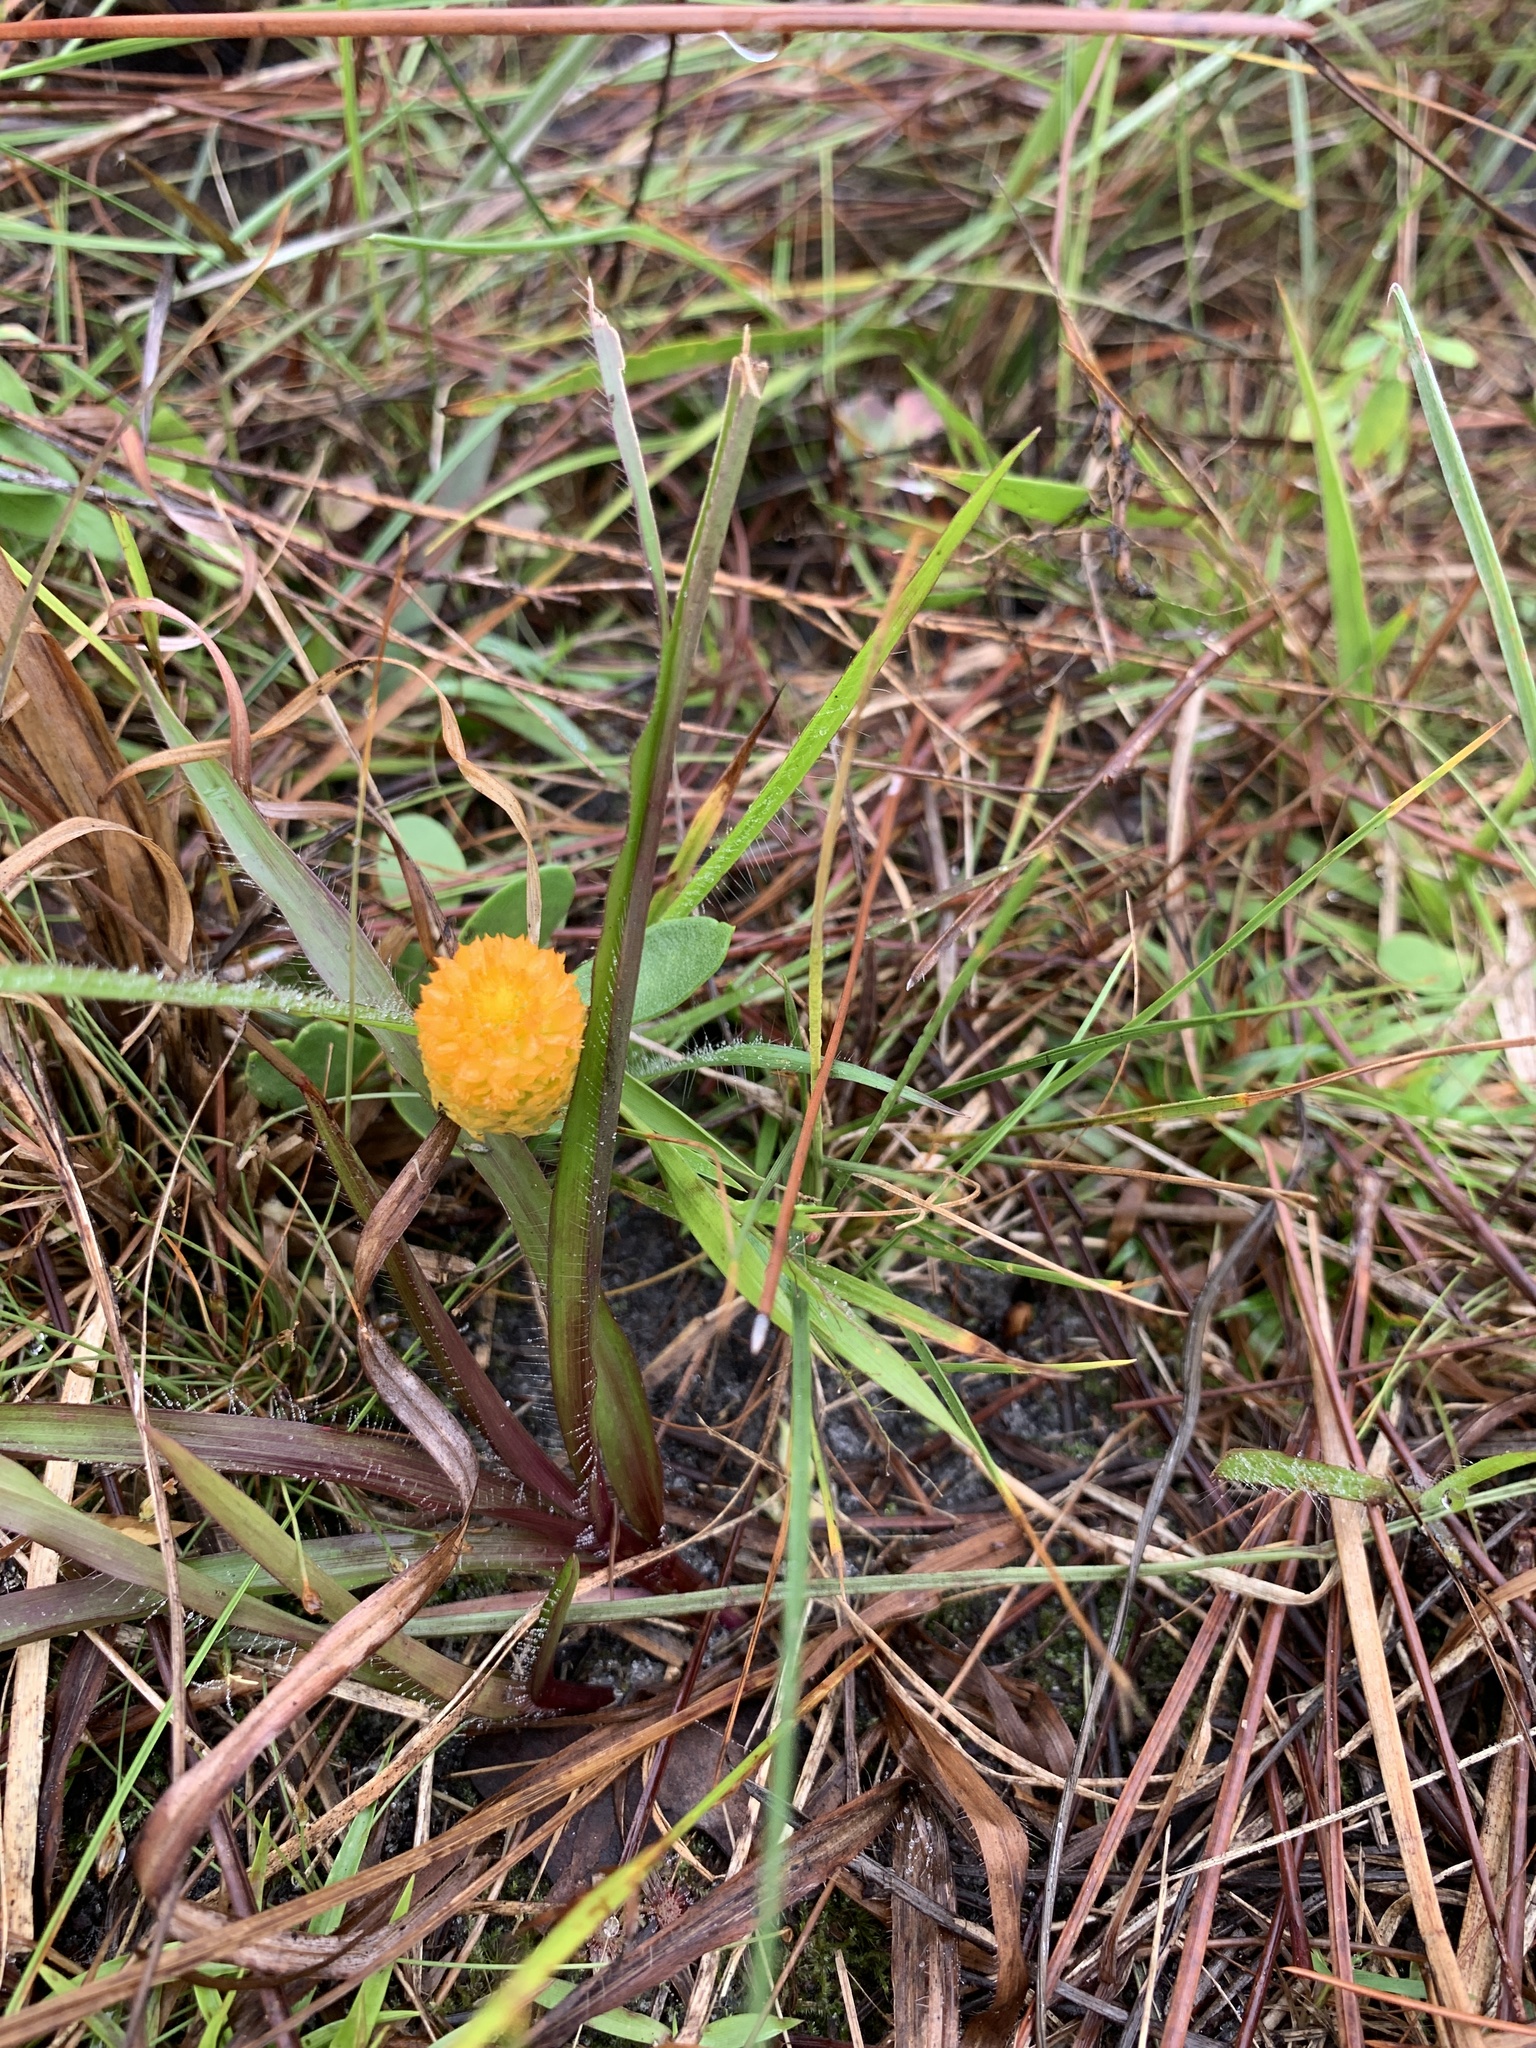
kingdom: Plantae
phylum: Tracheophyta
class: Magnoliopsida
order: Fabales
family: Polygalaceae
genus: Polygala
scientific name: Polygala lutea
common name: Orange milkwort
